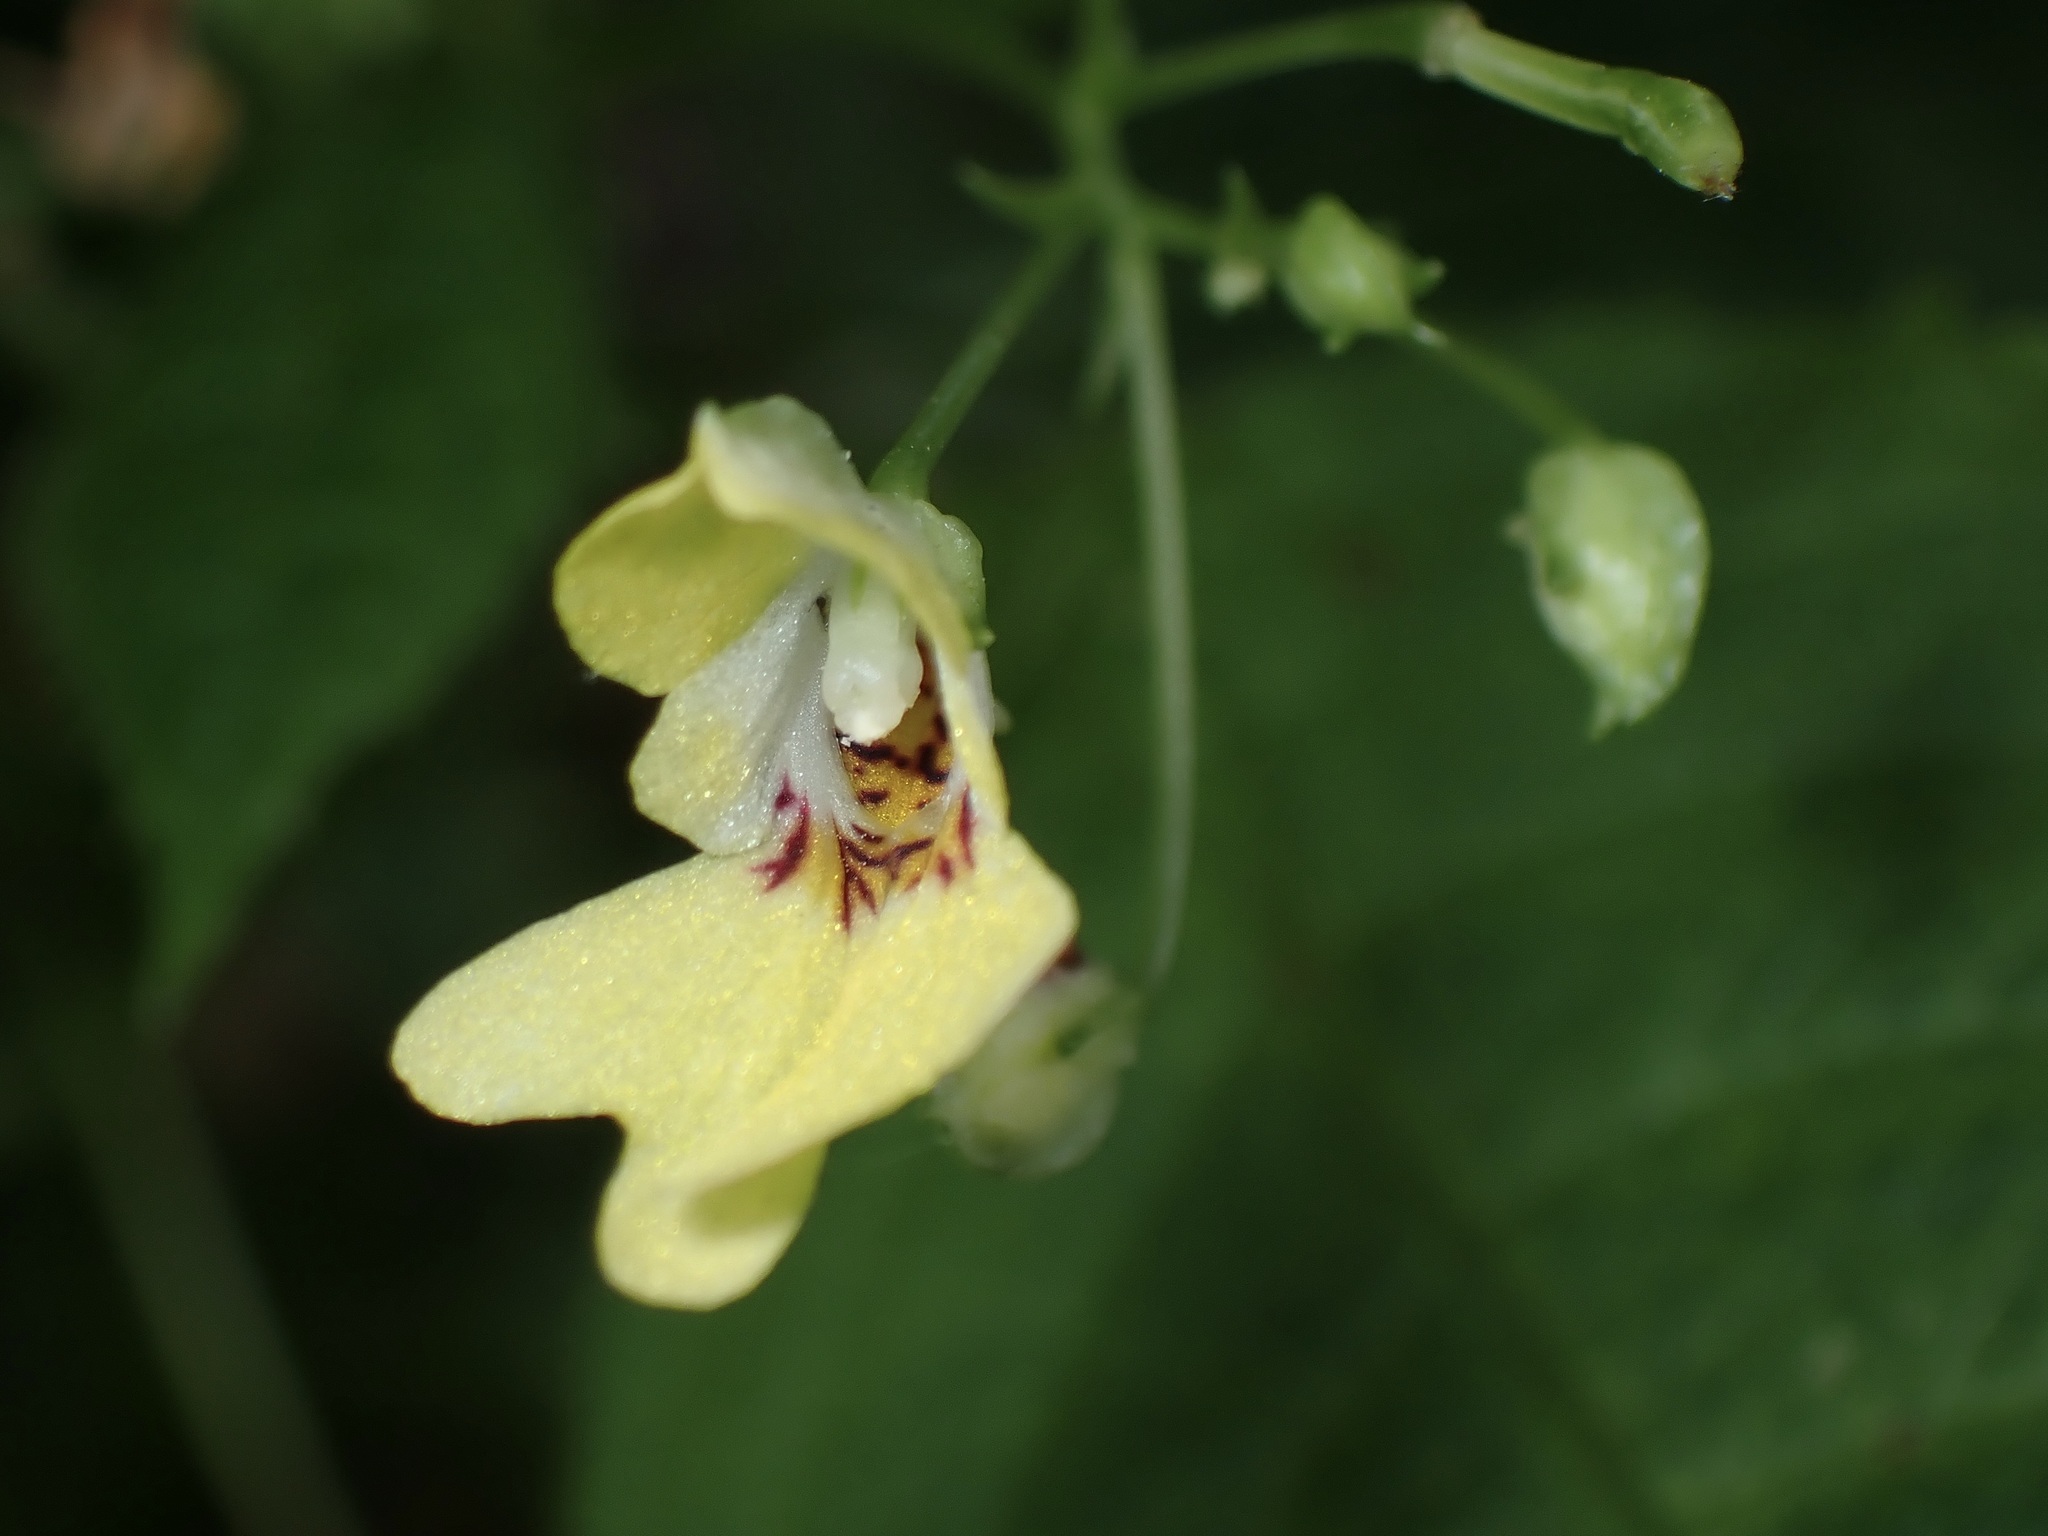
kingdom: Plantae
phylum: Tracheophyta
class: Magnoliopsida
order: Ericales
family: Balsaminaceae
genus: Impatiens
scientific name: Impatiens parviflora
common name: Small balsam
